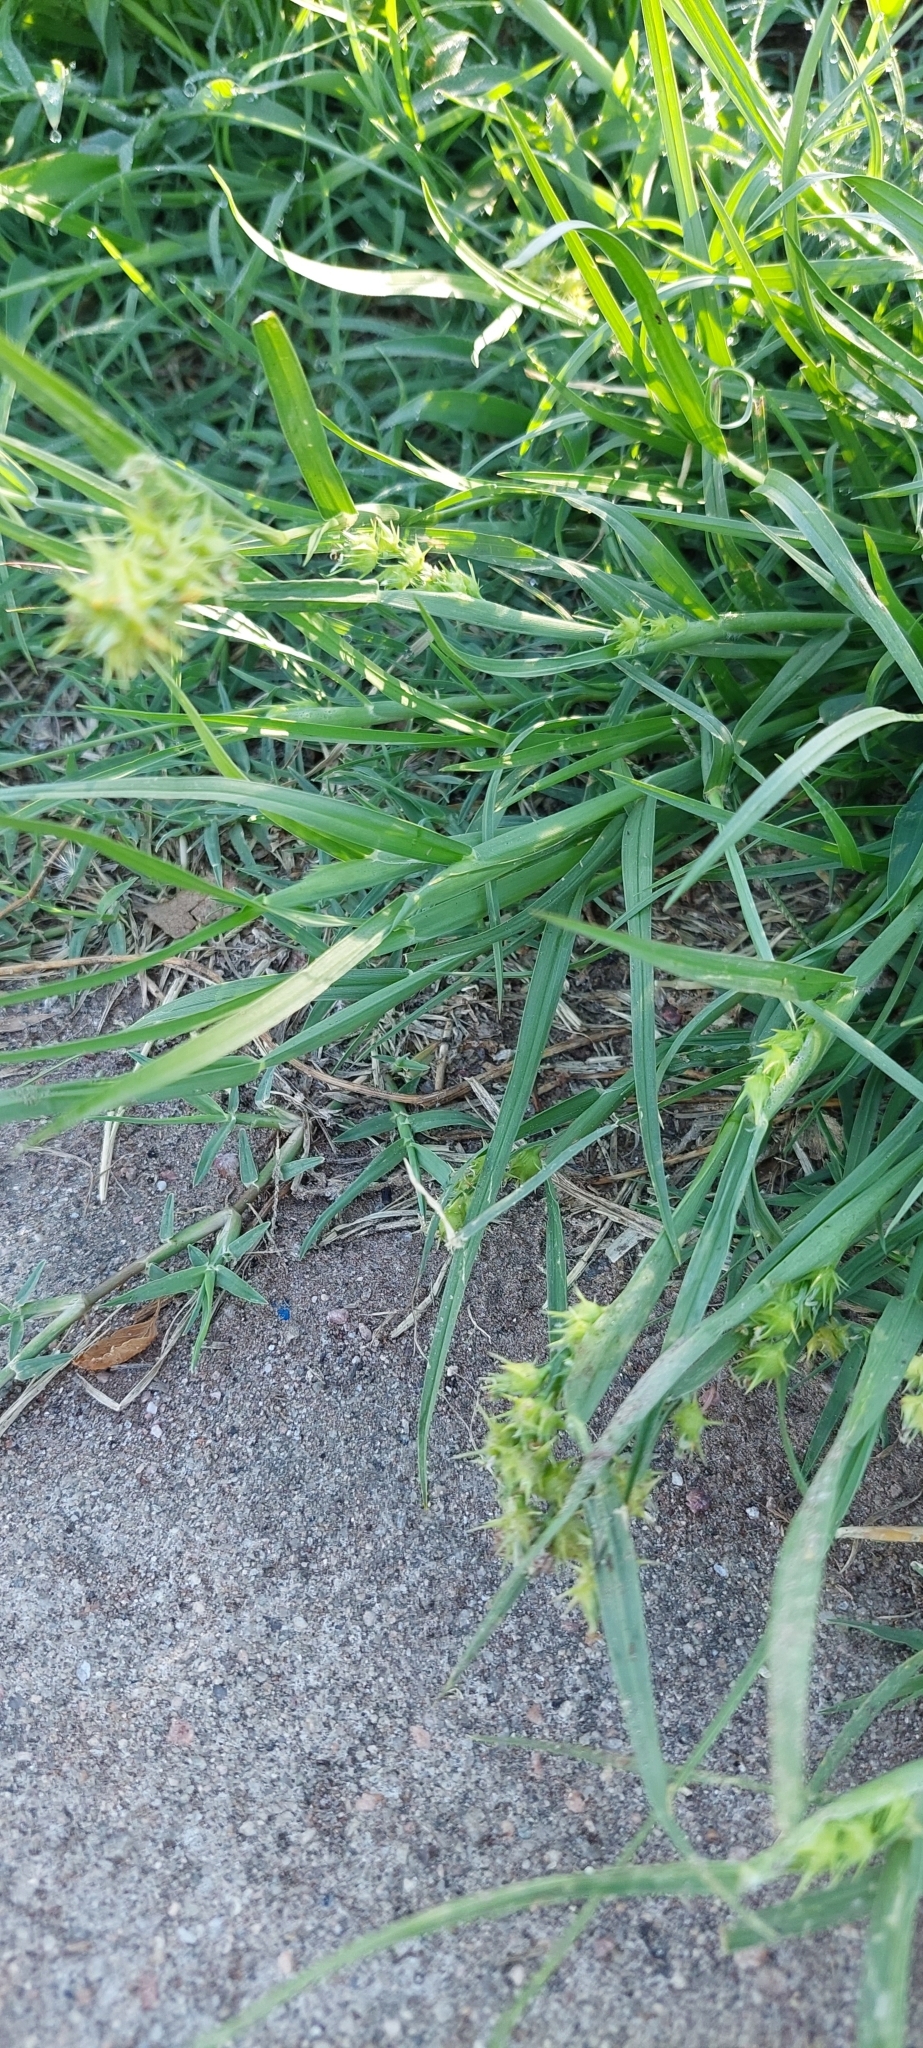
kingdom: Plantae
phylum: Tracheophyta
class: Liliopsida
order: Poales
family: Poaceae
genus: Cenchrus
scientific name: Cenchrus spinifex
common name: Coast sandbur
